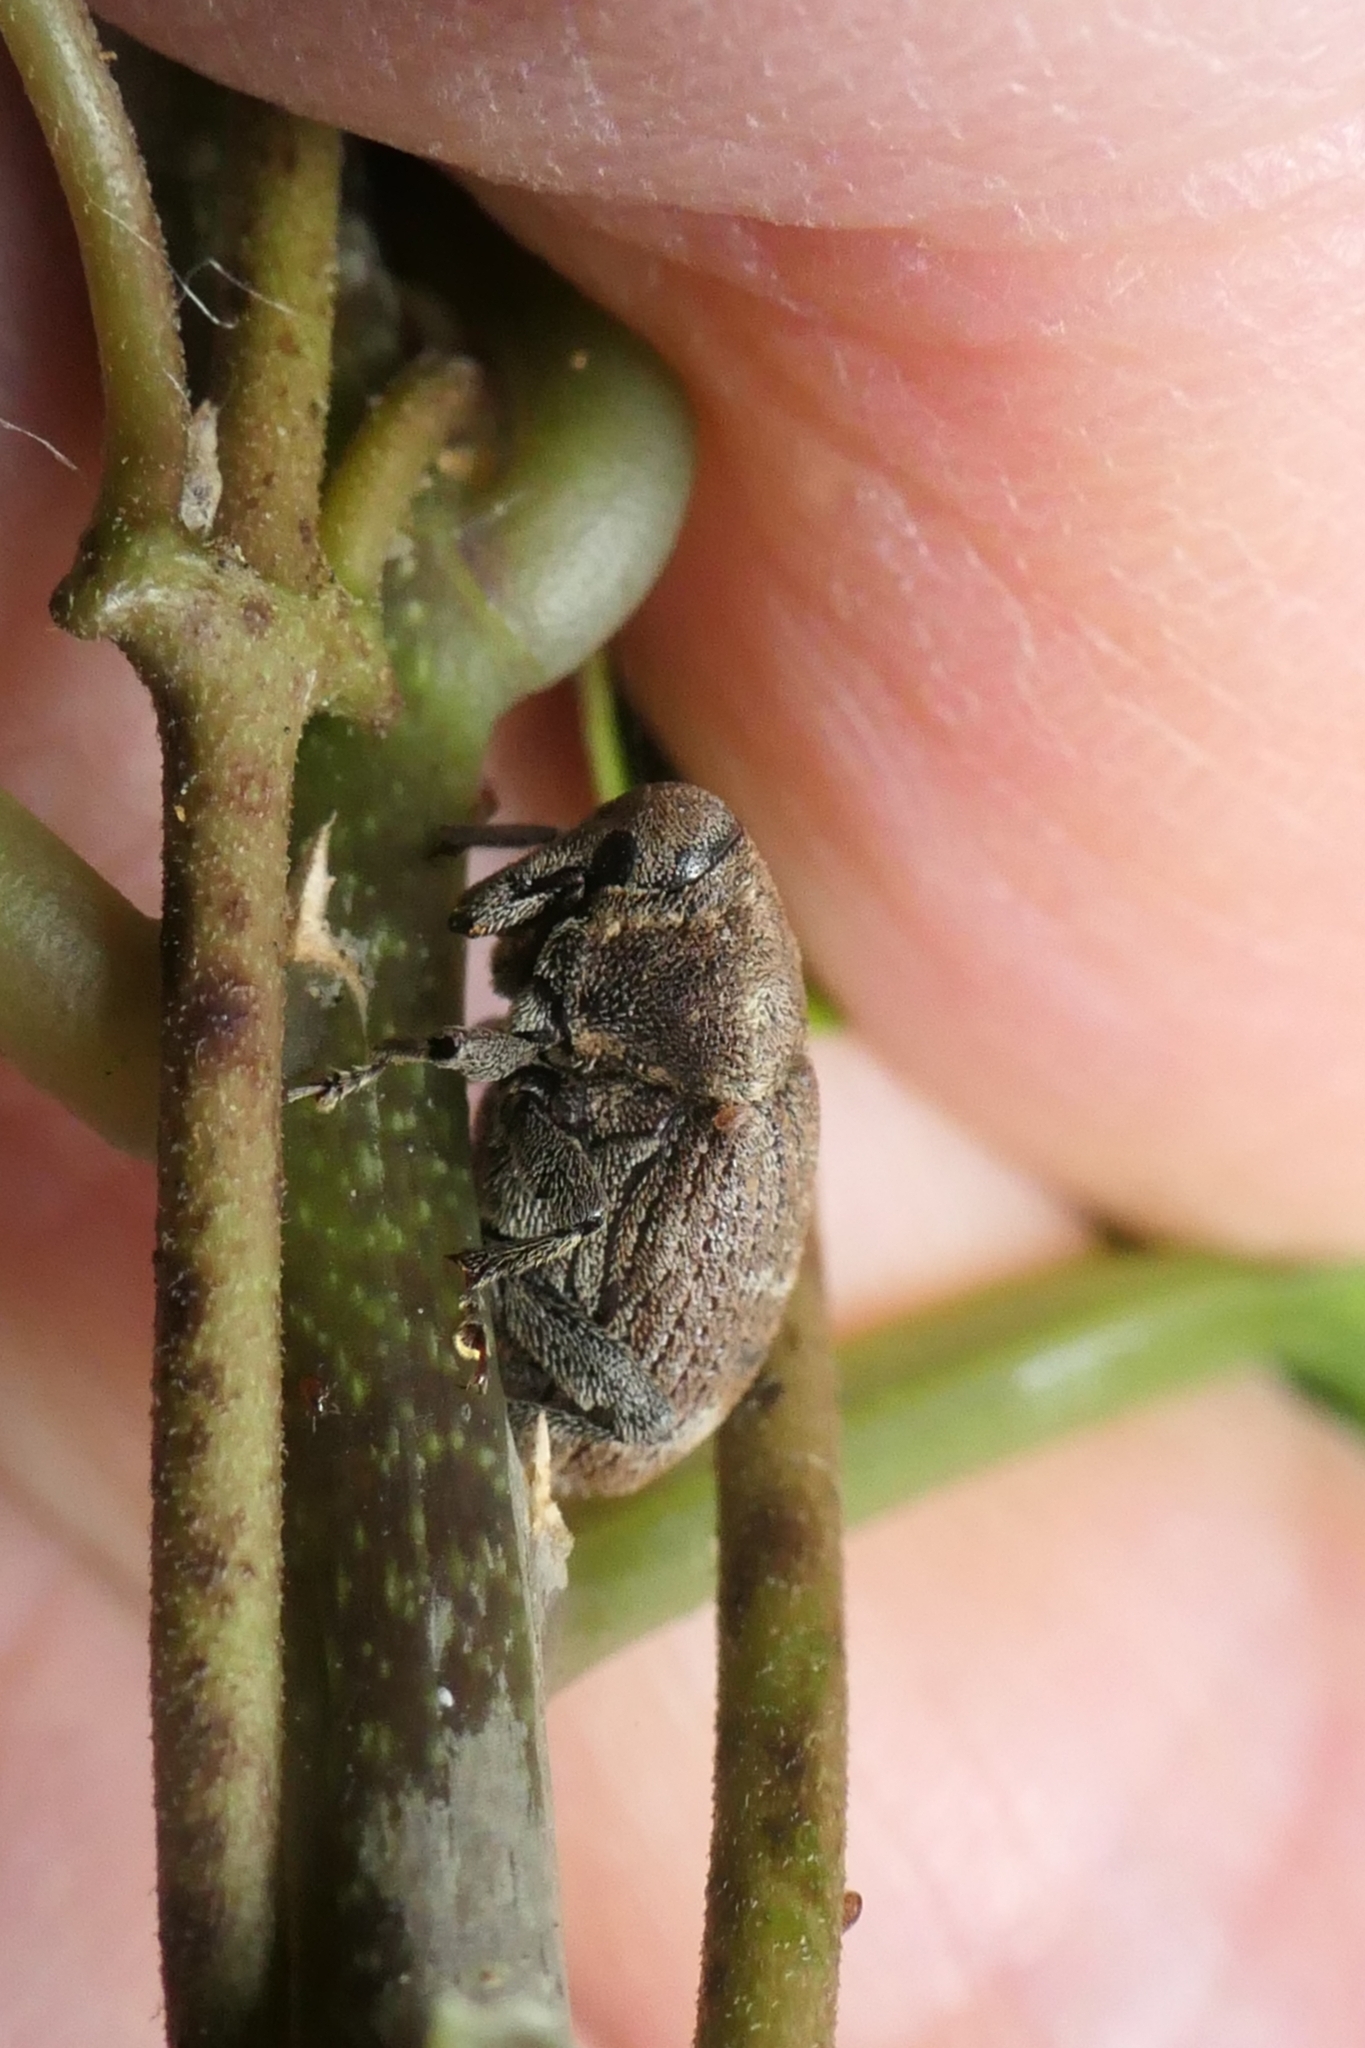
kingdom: Animalia
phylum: Arthropoda
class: Insecta
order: Coleoptera
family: Curculionidae
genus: Homoreda
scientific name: Homoreda
